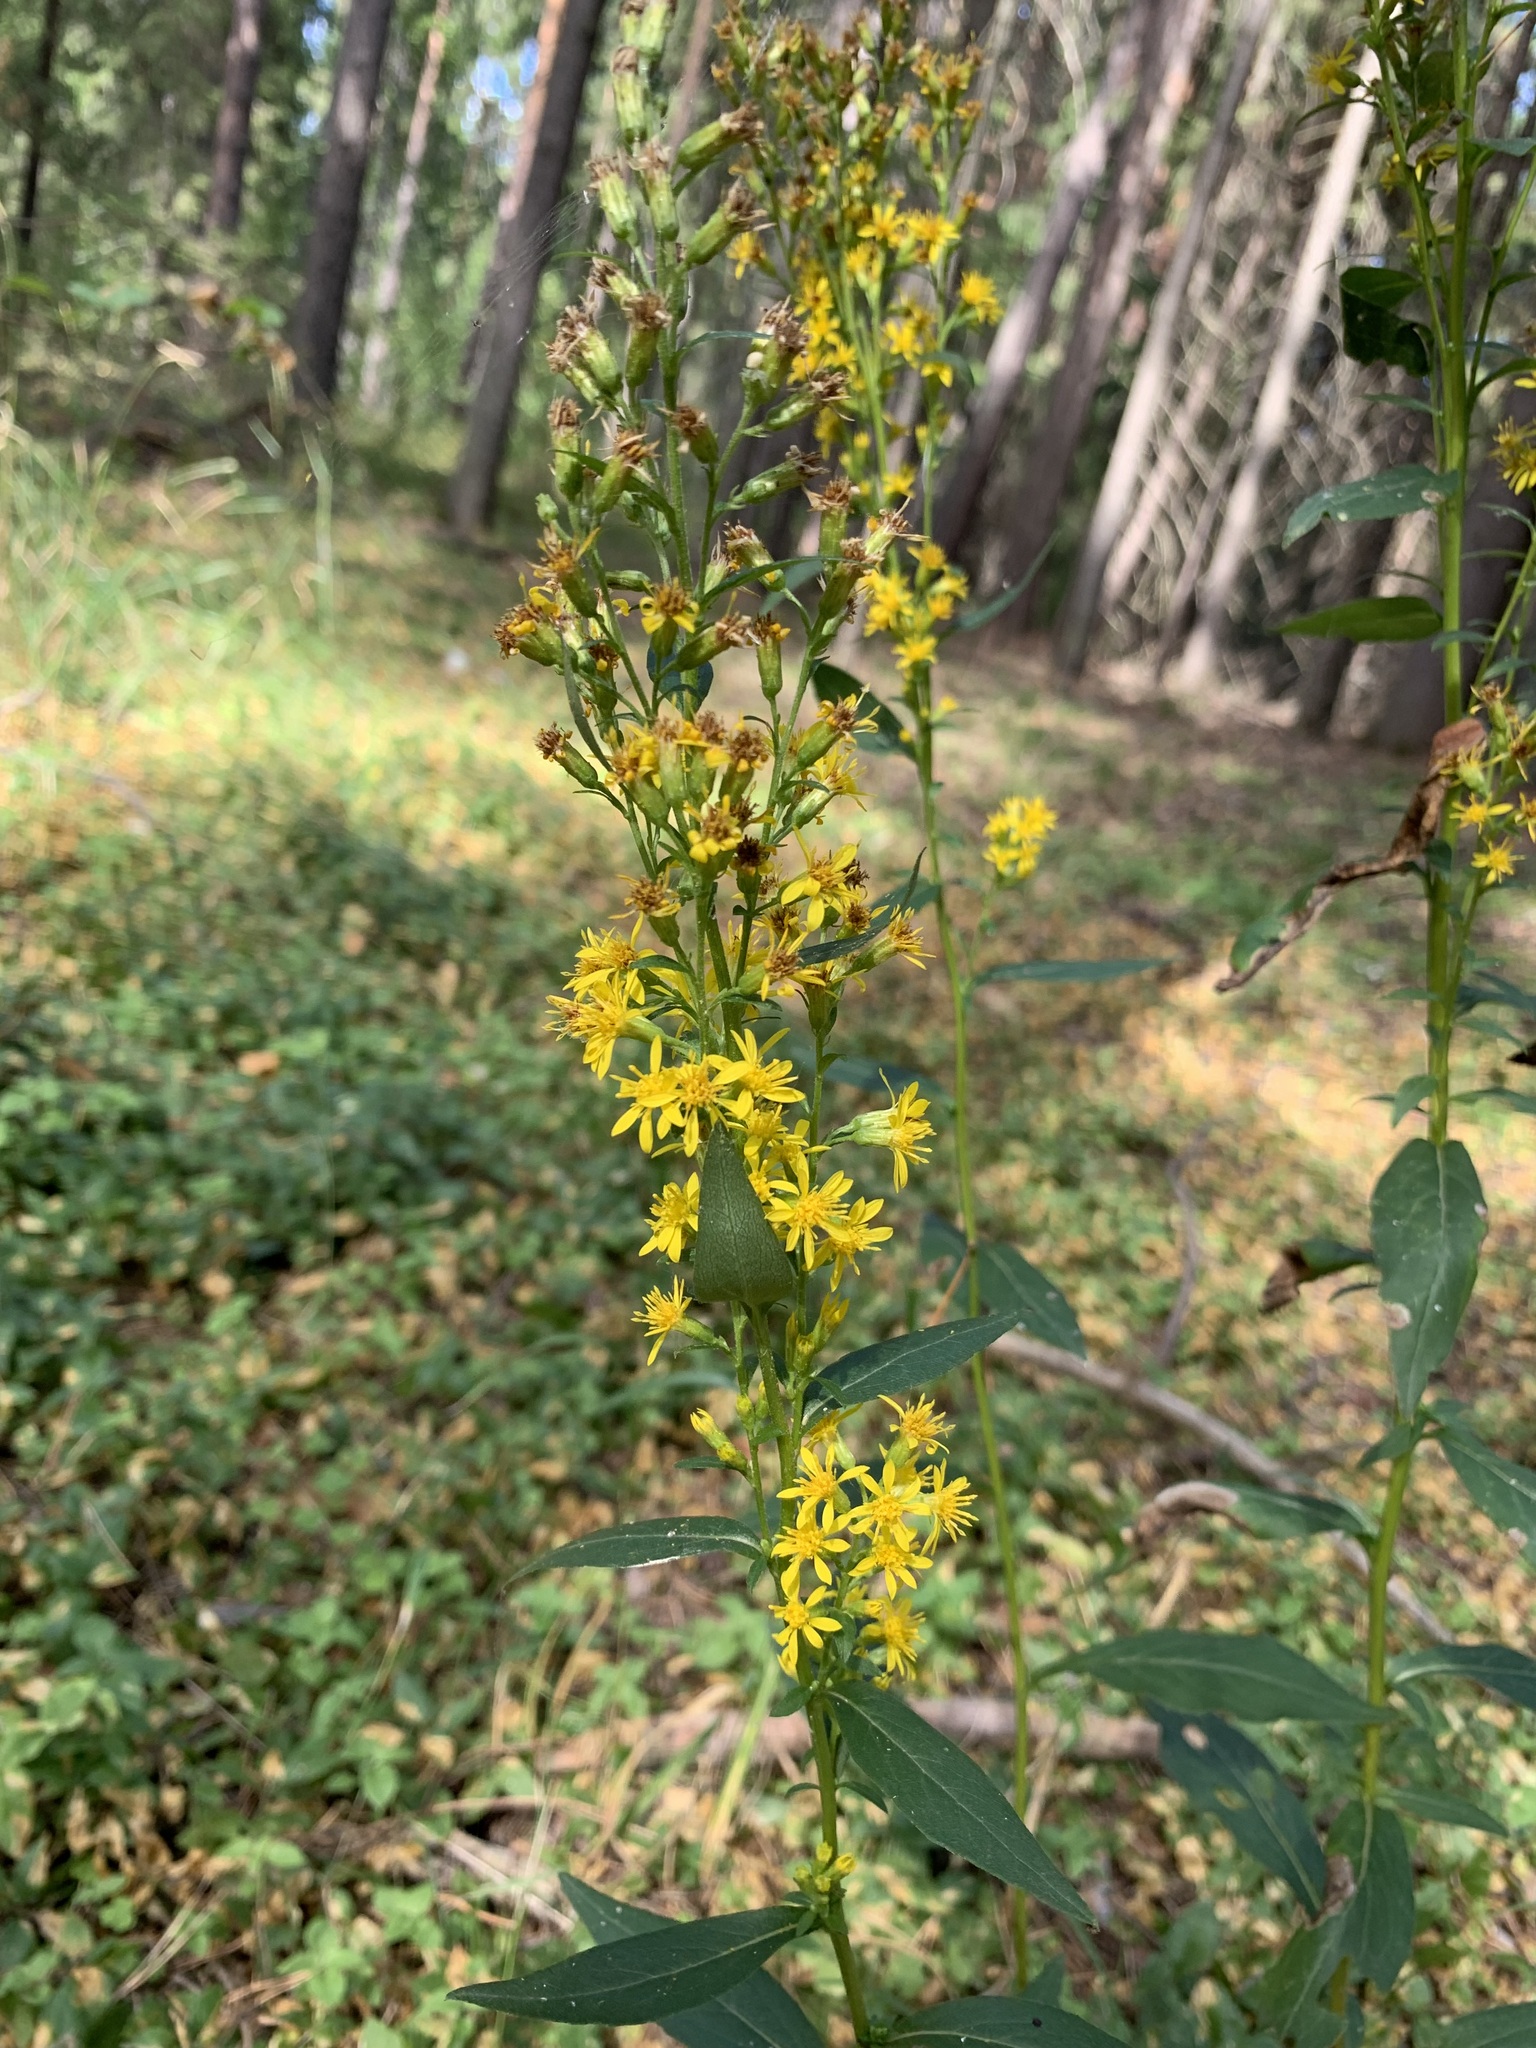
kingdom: Plantae
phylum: Tracheophyta
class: Magnoliopsida
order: Asterales
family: Asteraceae
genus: Solidago
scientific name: Solidago virgaurea
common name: Goldenrod
